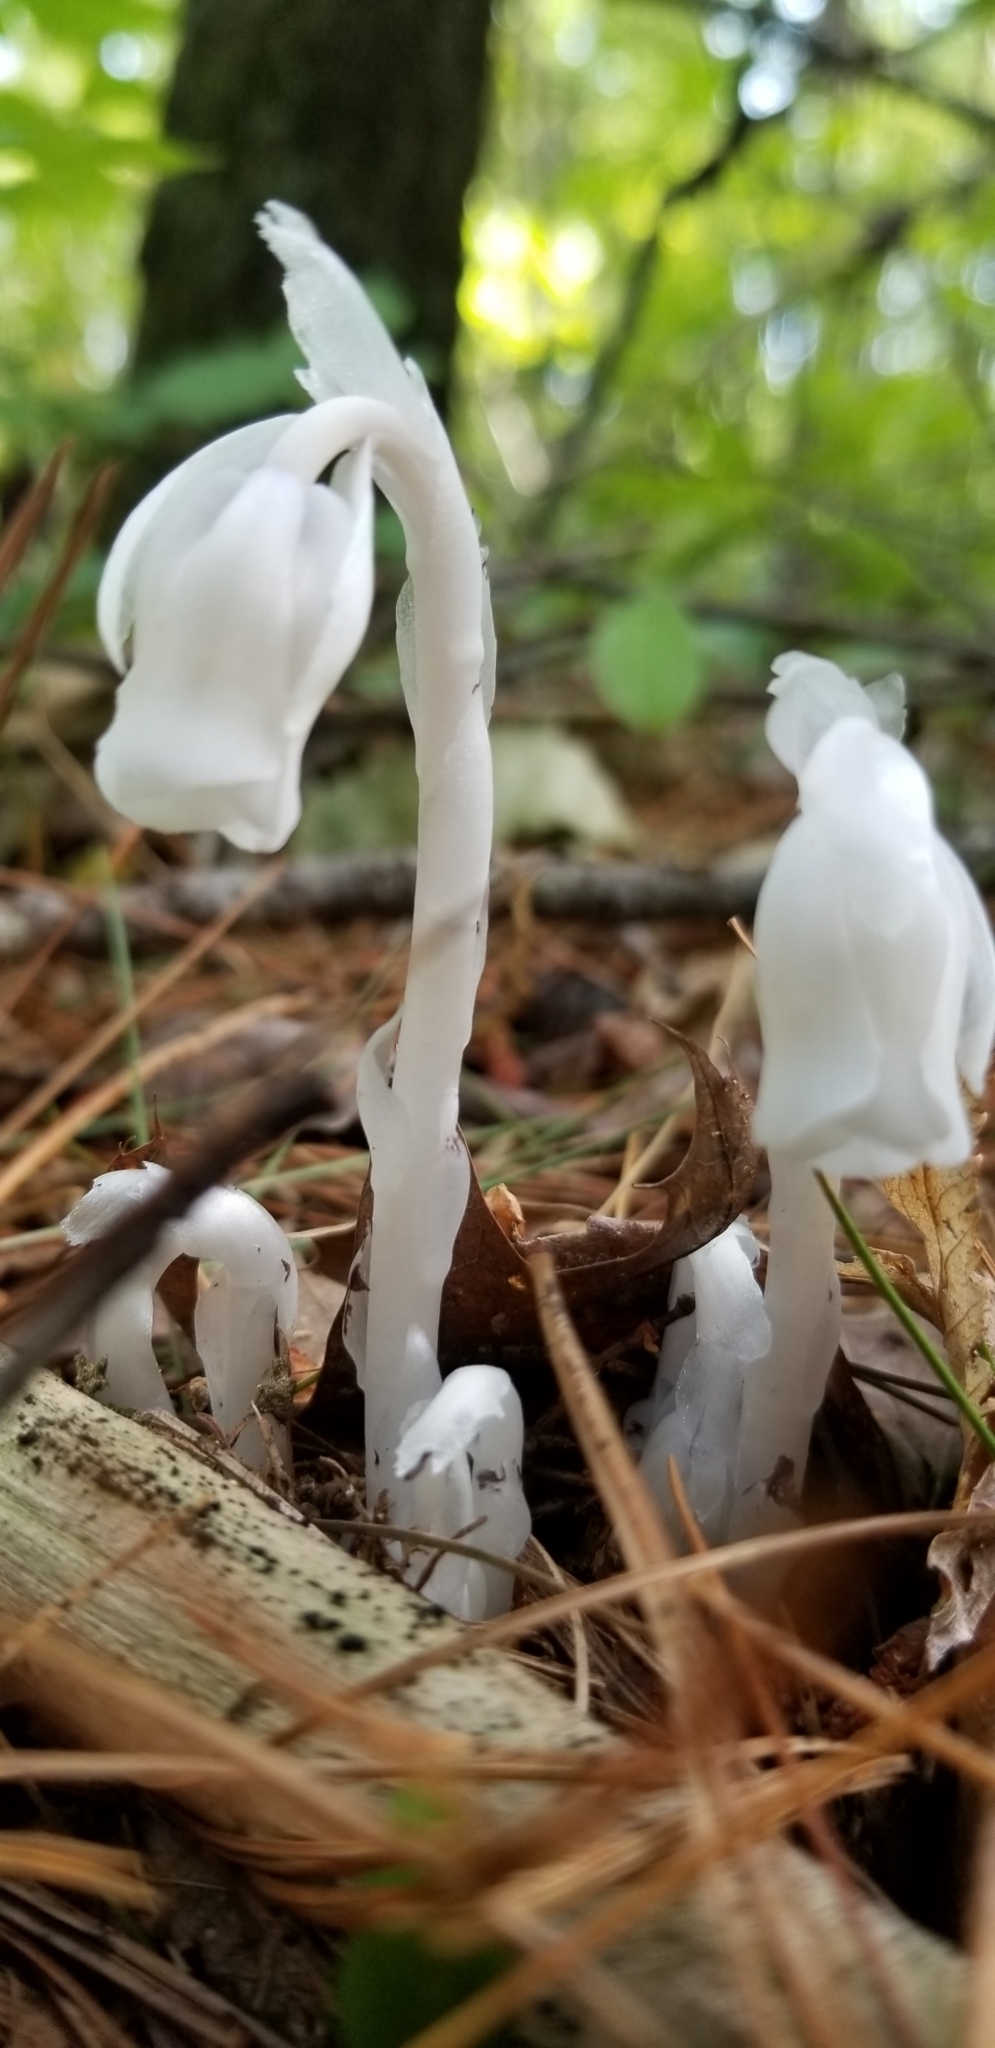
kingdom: Plantae
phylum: Tracheophyta
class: Magnoliopsida
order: Ericales
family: Ericaceae
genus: Monotropa
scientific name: Monotropa uniflora
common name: Convulsion root
